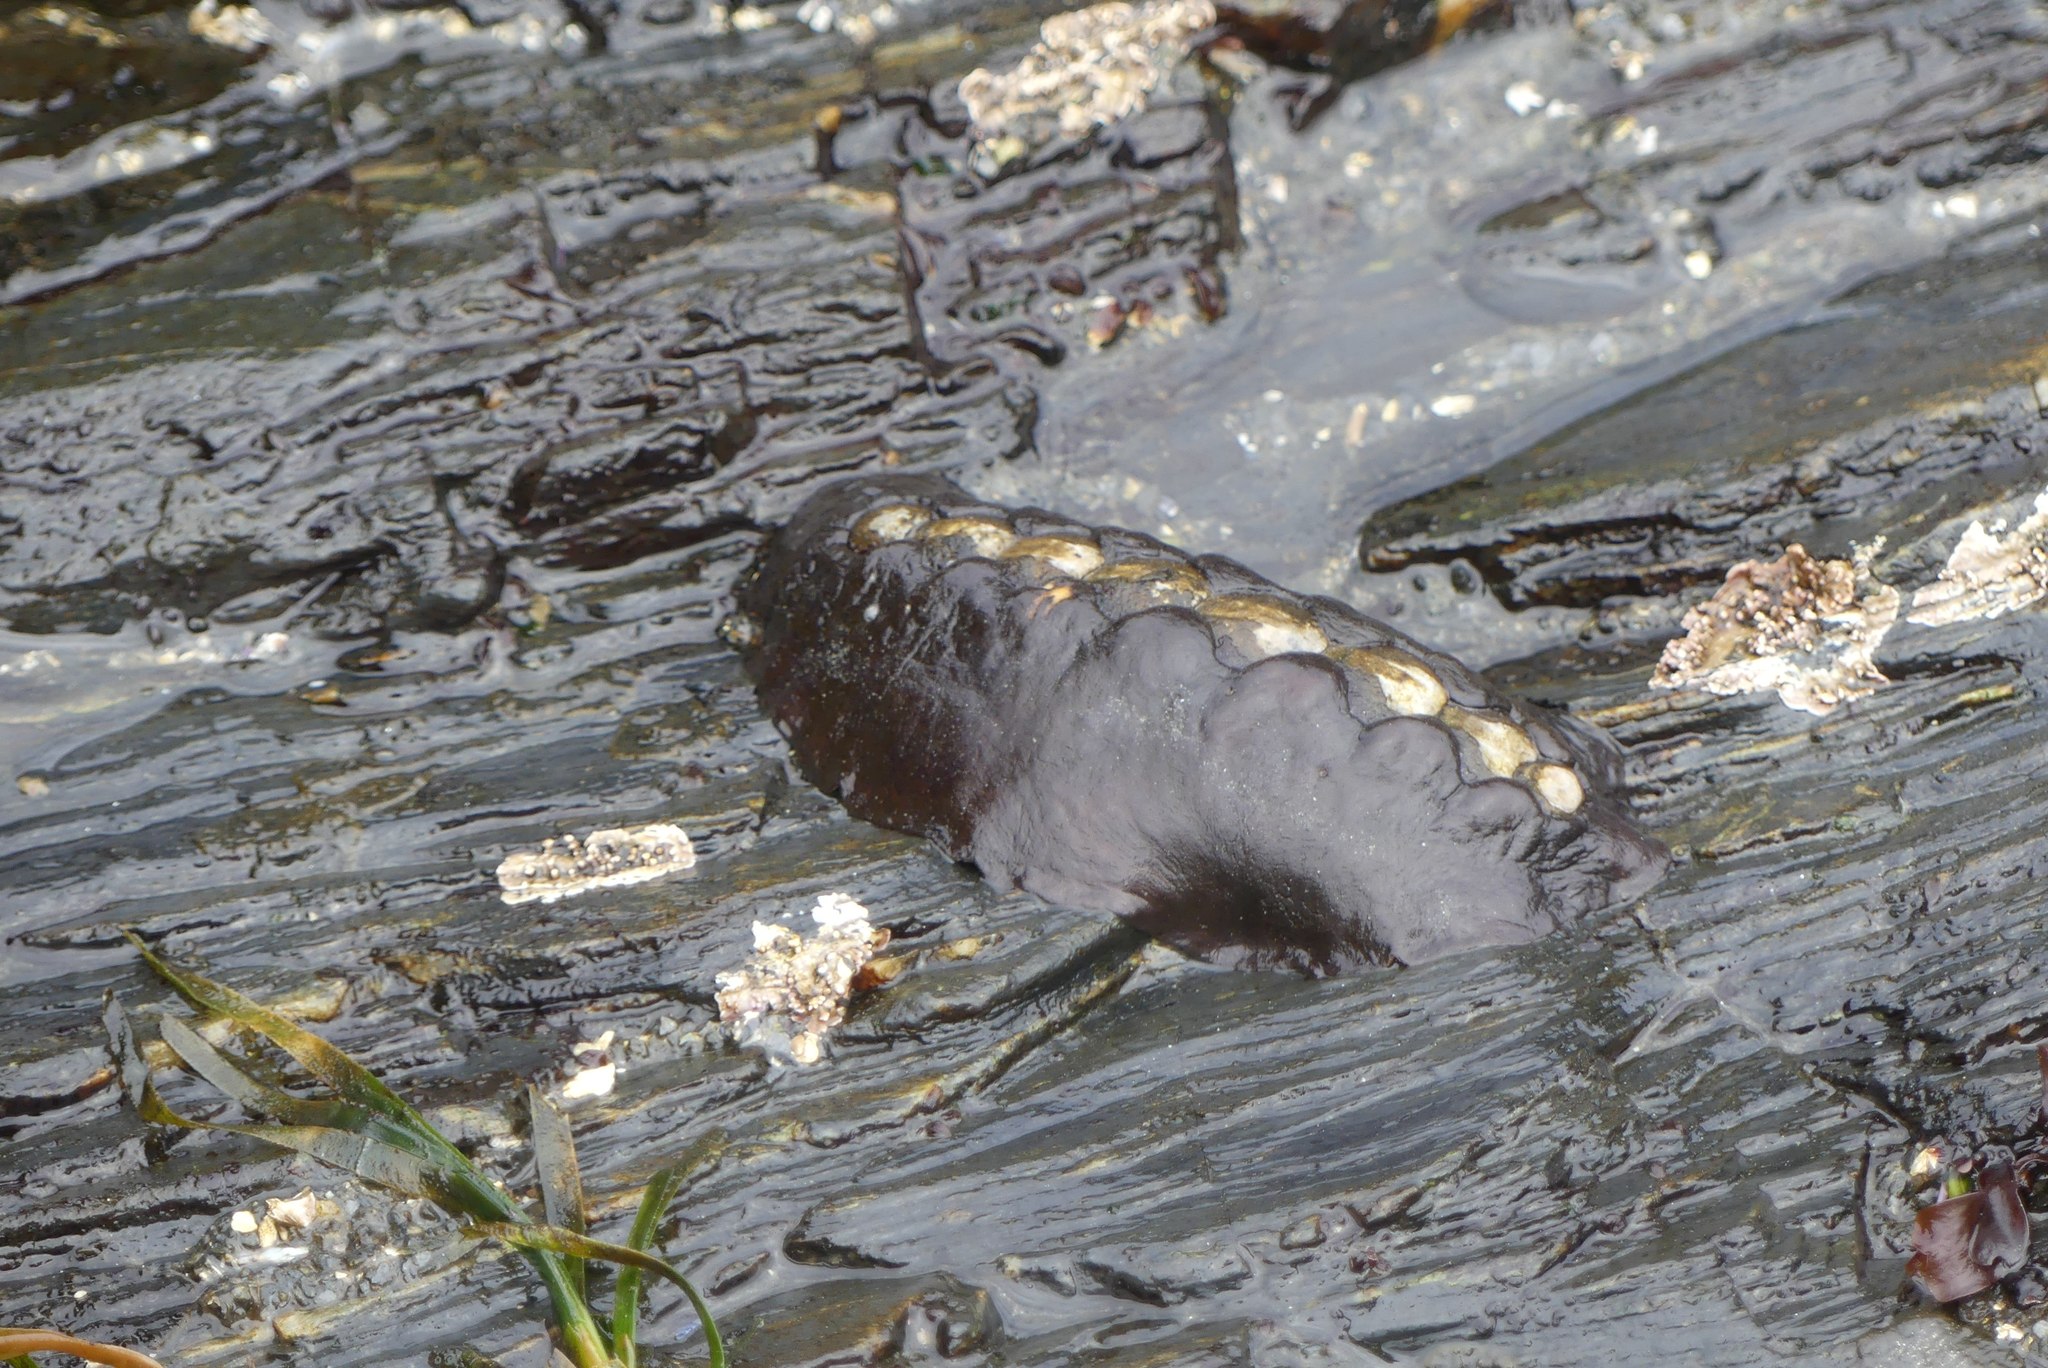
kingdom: Animalia
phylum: Mollusca
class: Polyplacophora
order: Chitonida
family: Mopaliidae
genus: Katharina
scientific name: Katharina tunicata
